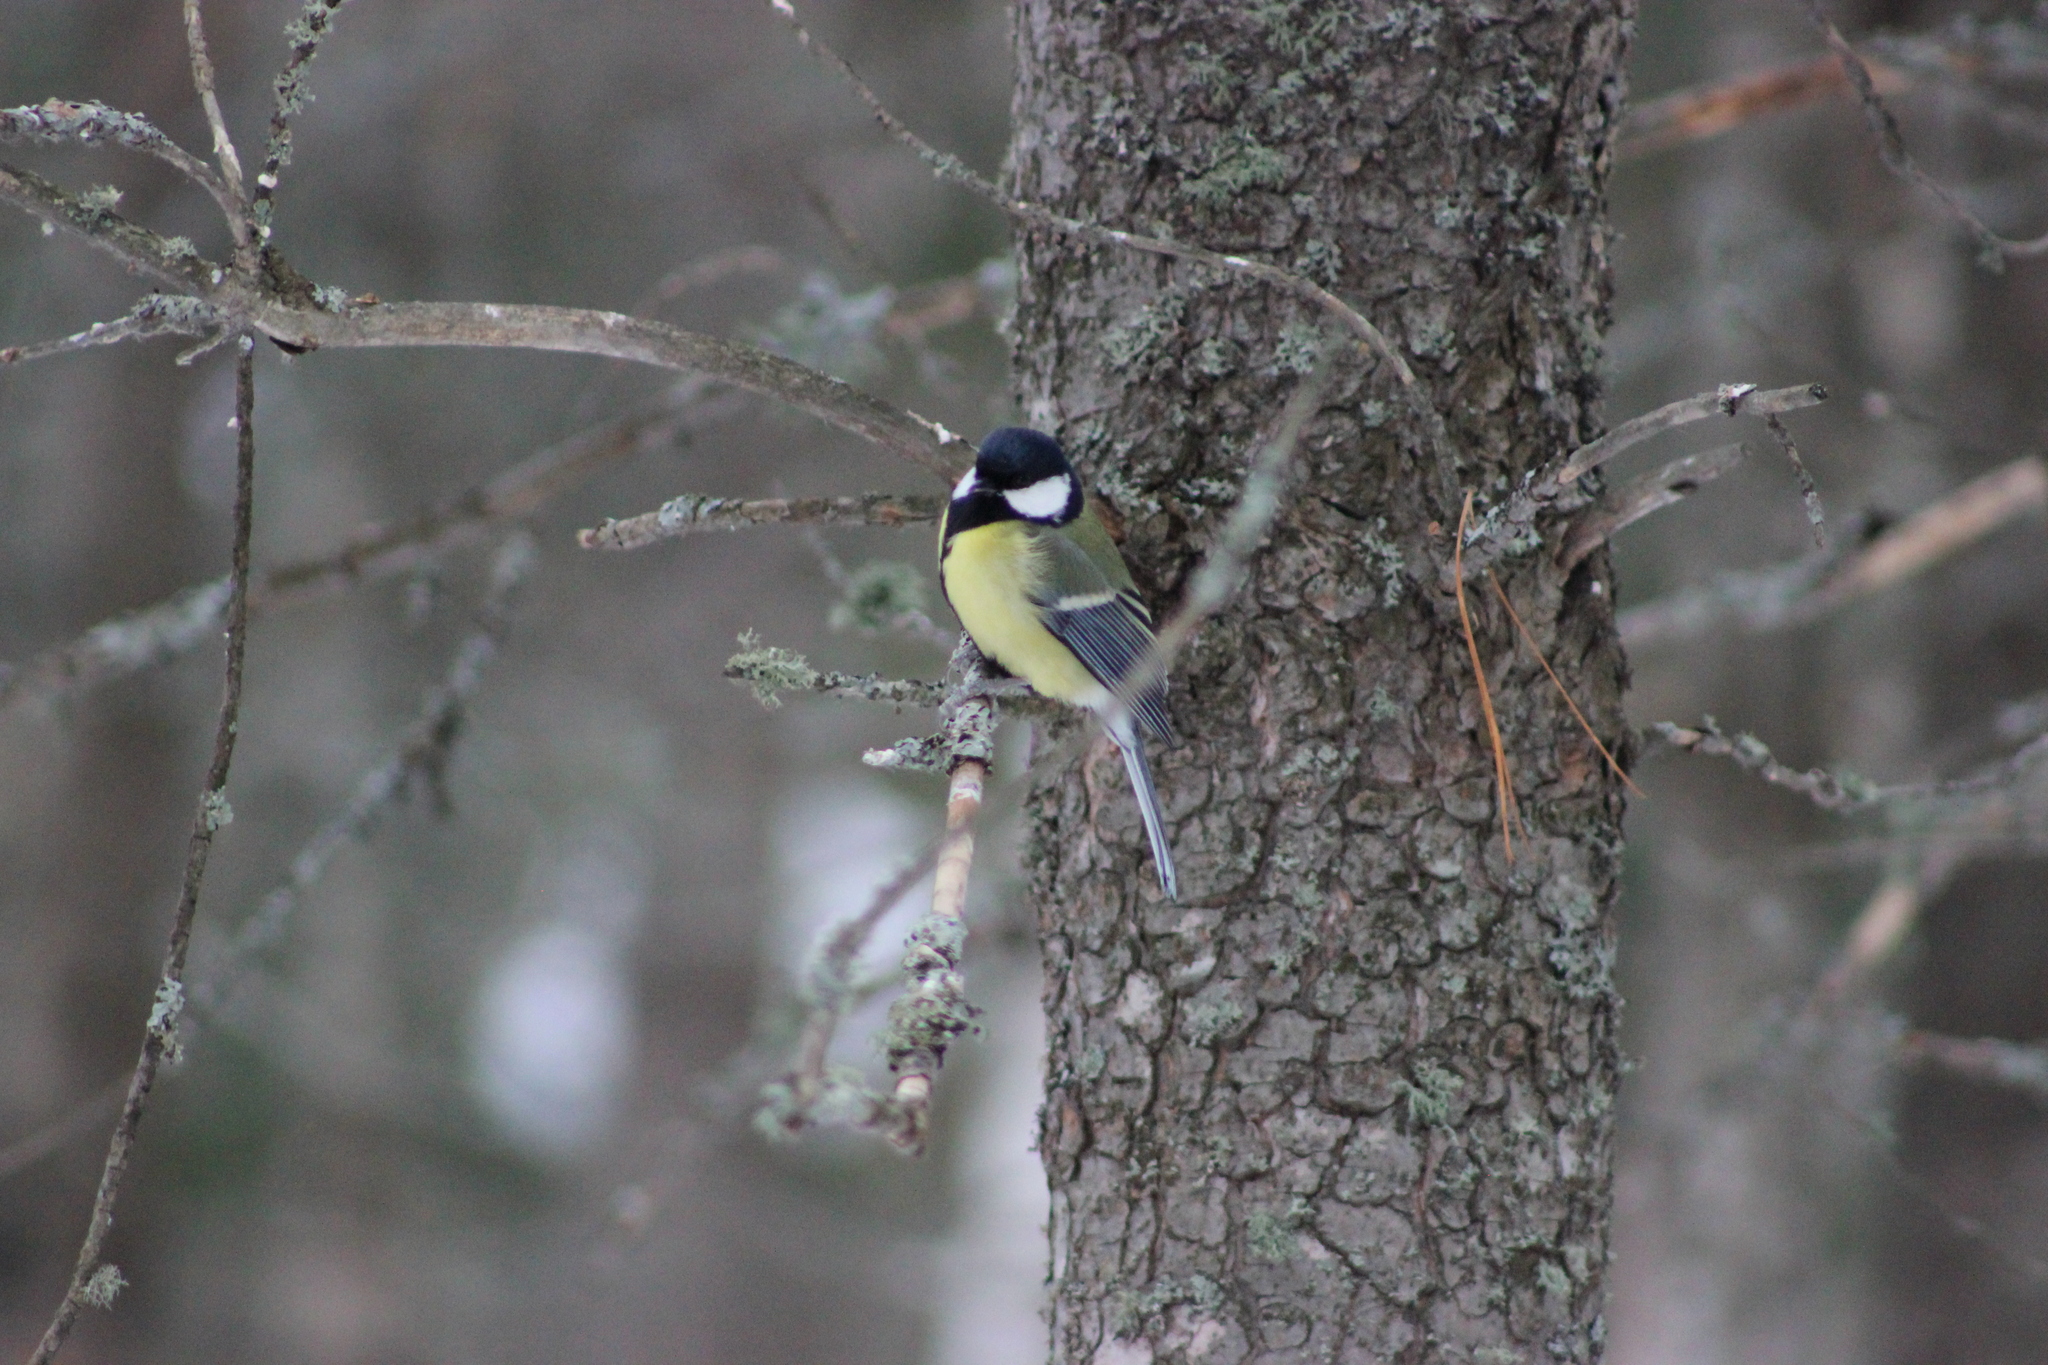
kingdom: Animalia
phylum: Chordata
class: Aves
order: Passeriformes
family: Paridae
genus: Parus
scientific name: Parus major
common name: Great tit
